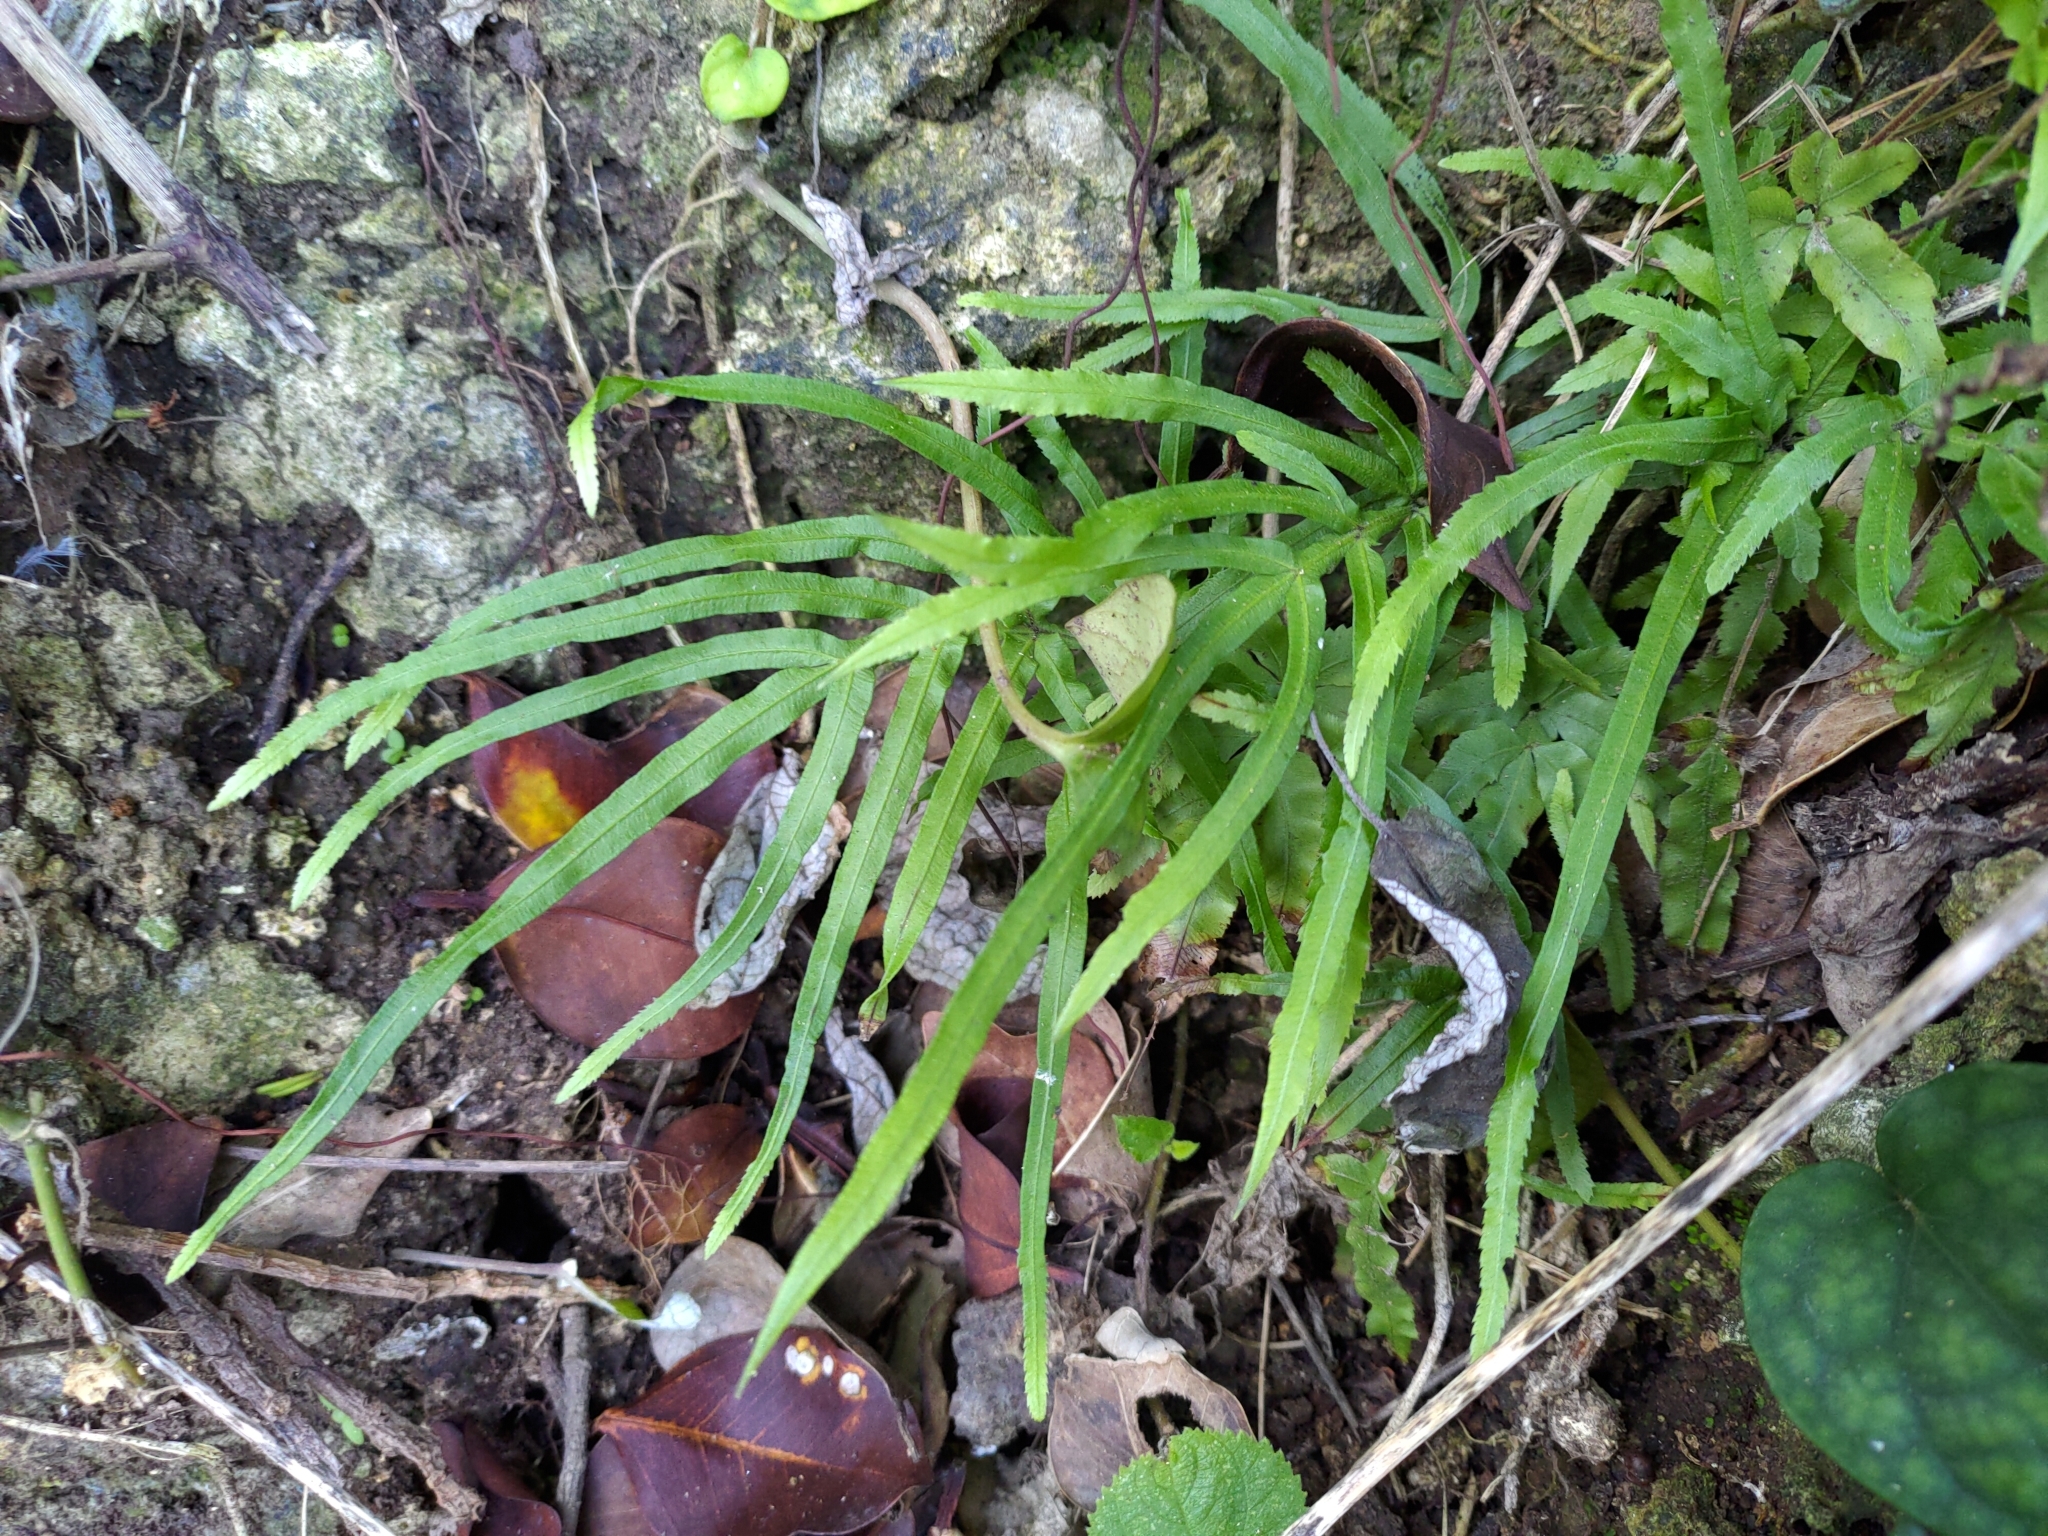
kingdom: Plantae
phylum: Tracheophyta
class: Polypodiopsida
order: Polypodiales
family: Pteridaceae
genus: Pteris
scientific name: Pteris multifida
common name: Spider brake
